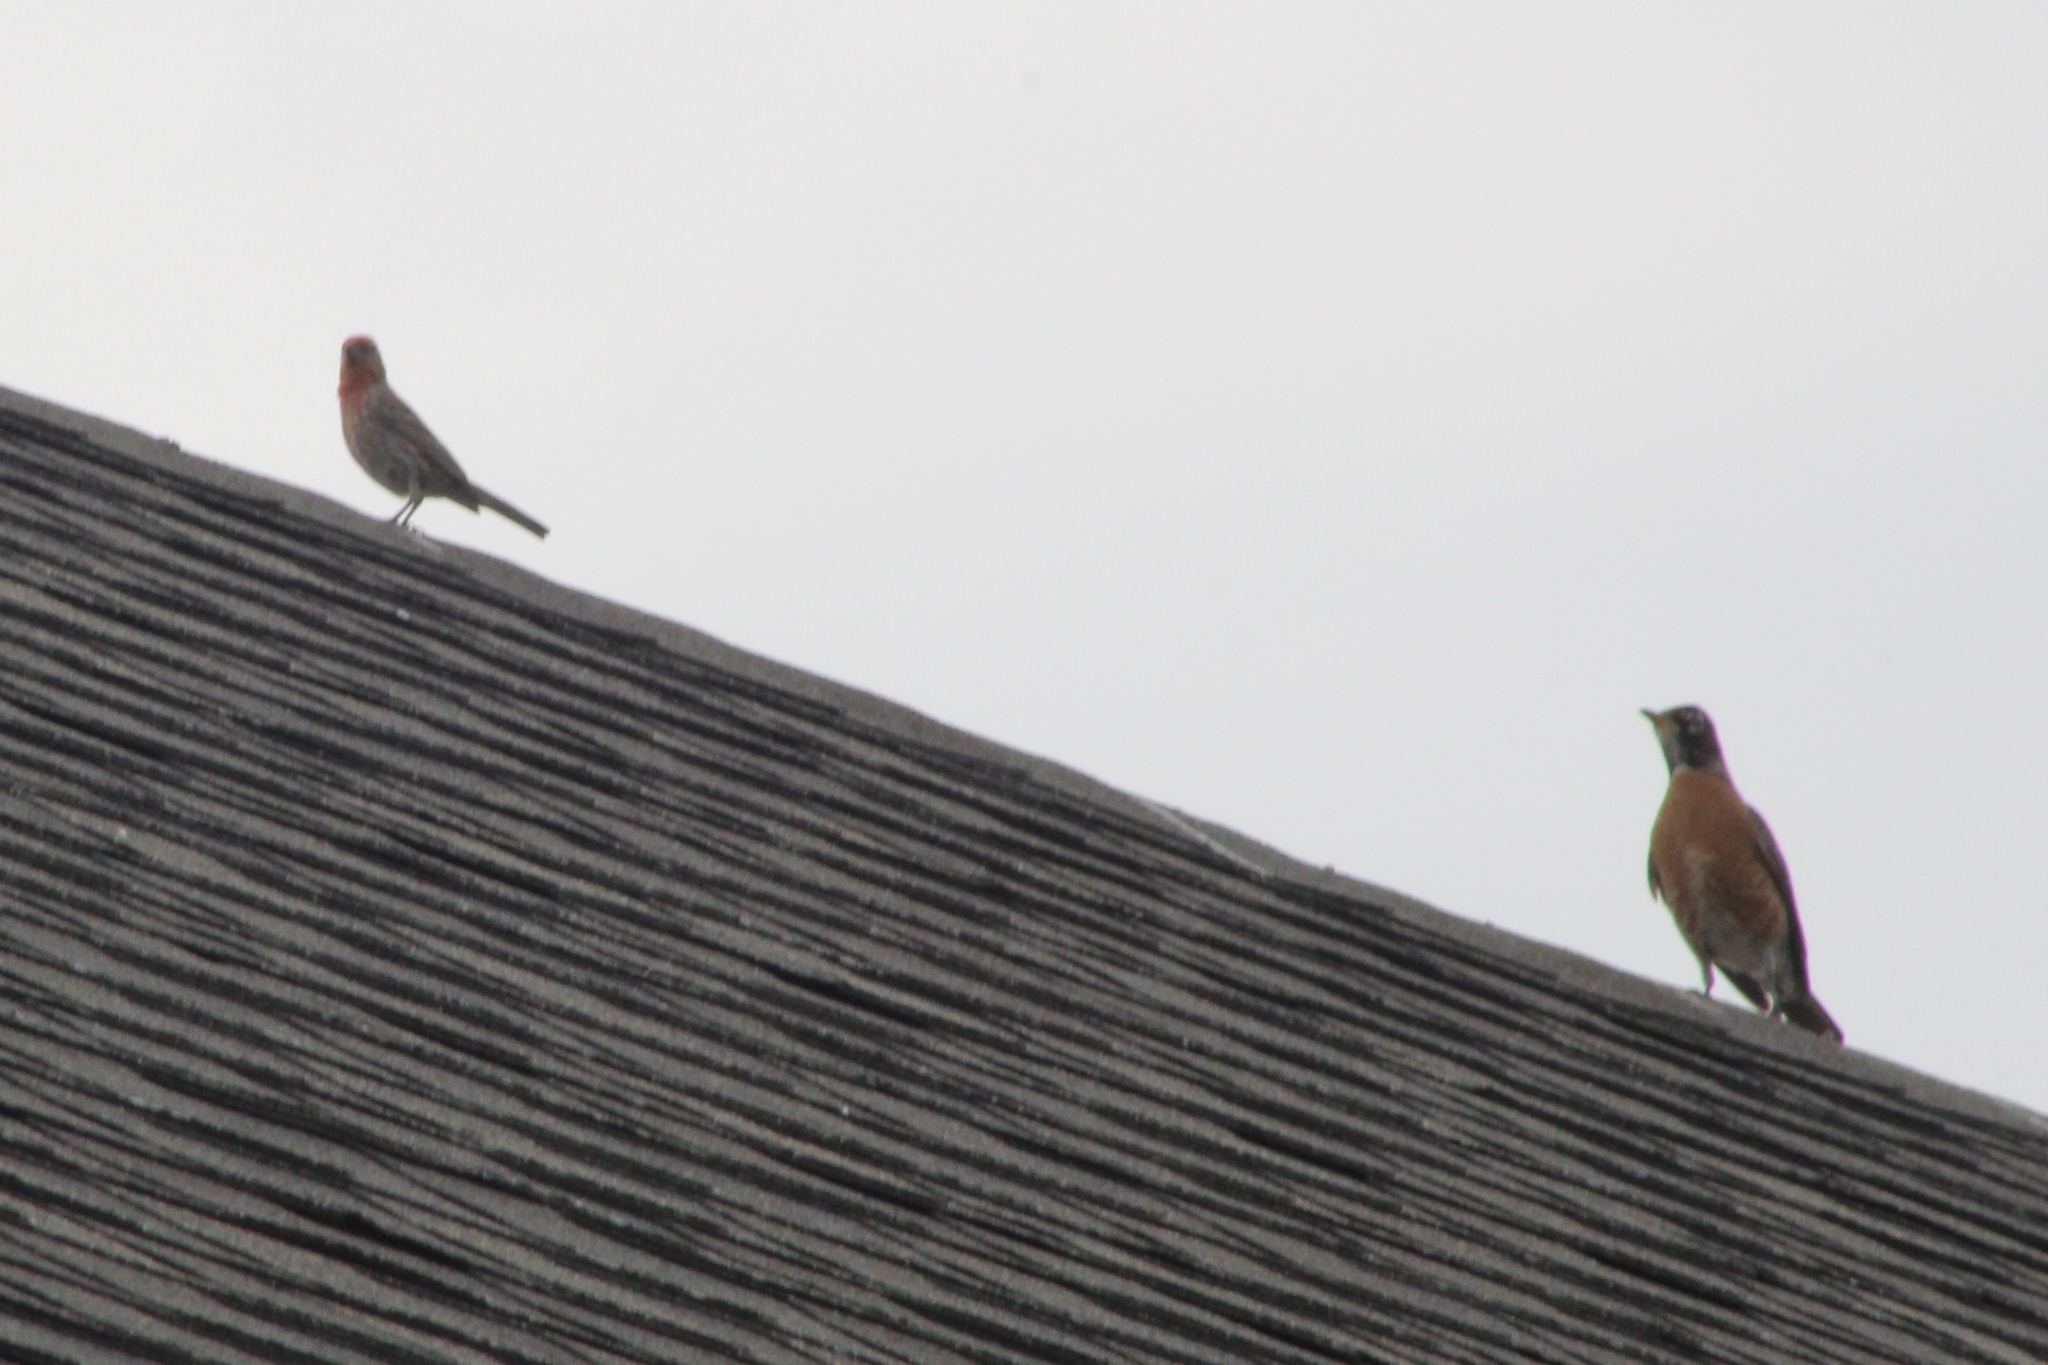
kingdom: Animalia
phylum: Chordata
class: Aves
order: Passeriformes
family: Fringillidae
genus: Haemorhous
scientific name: Haemorhous mexicanus
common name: House finch
